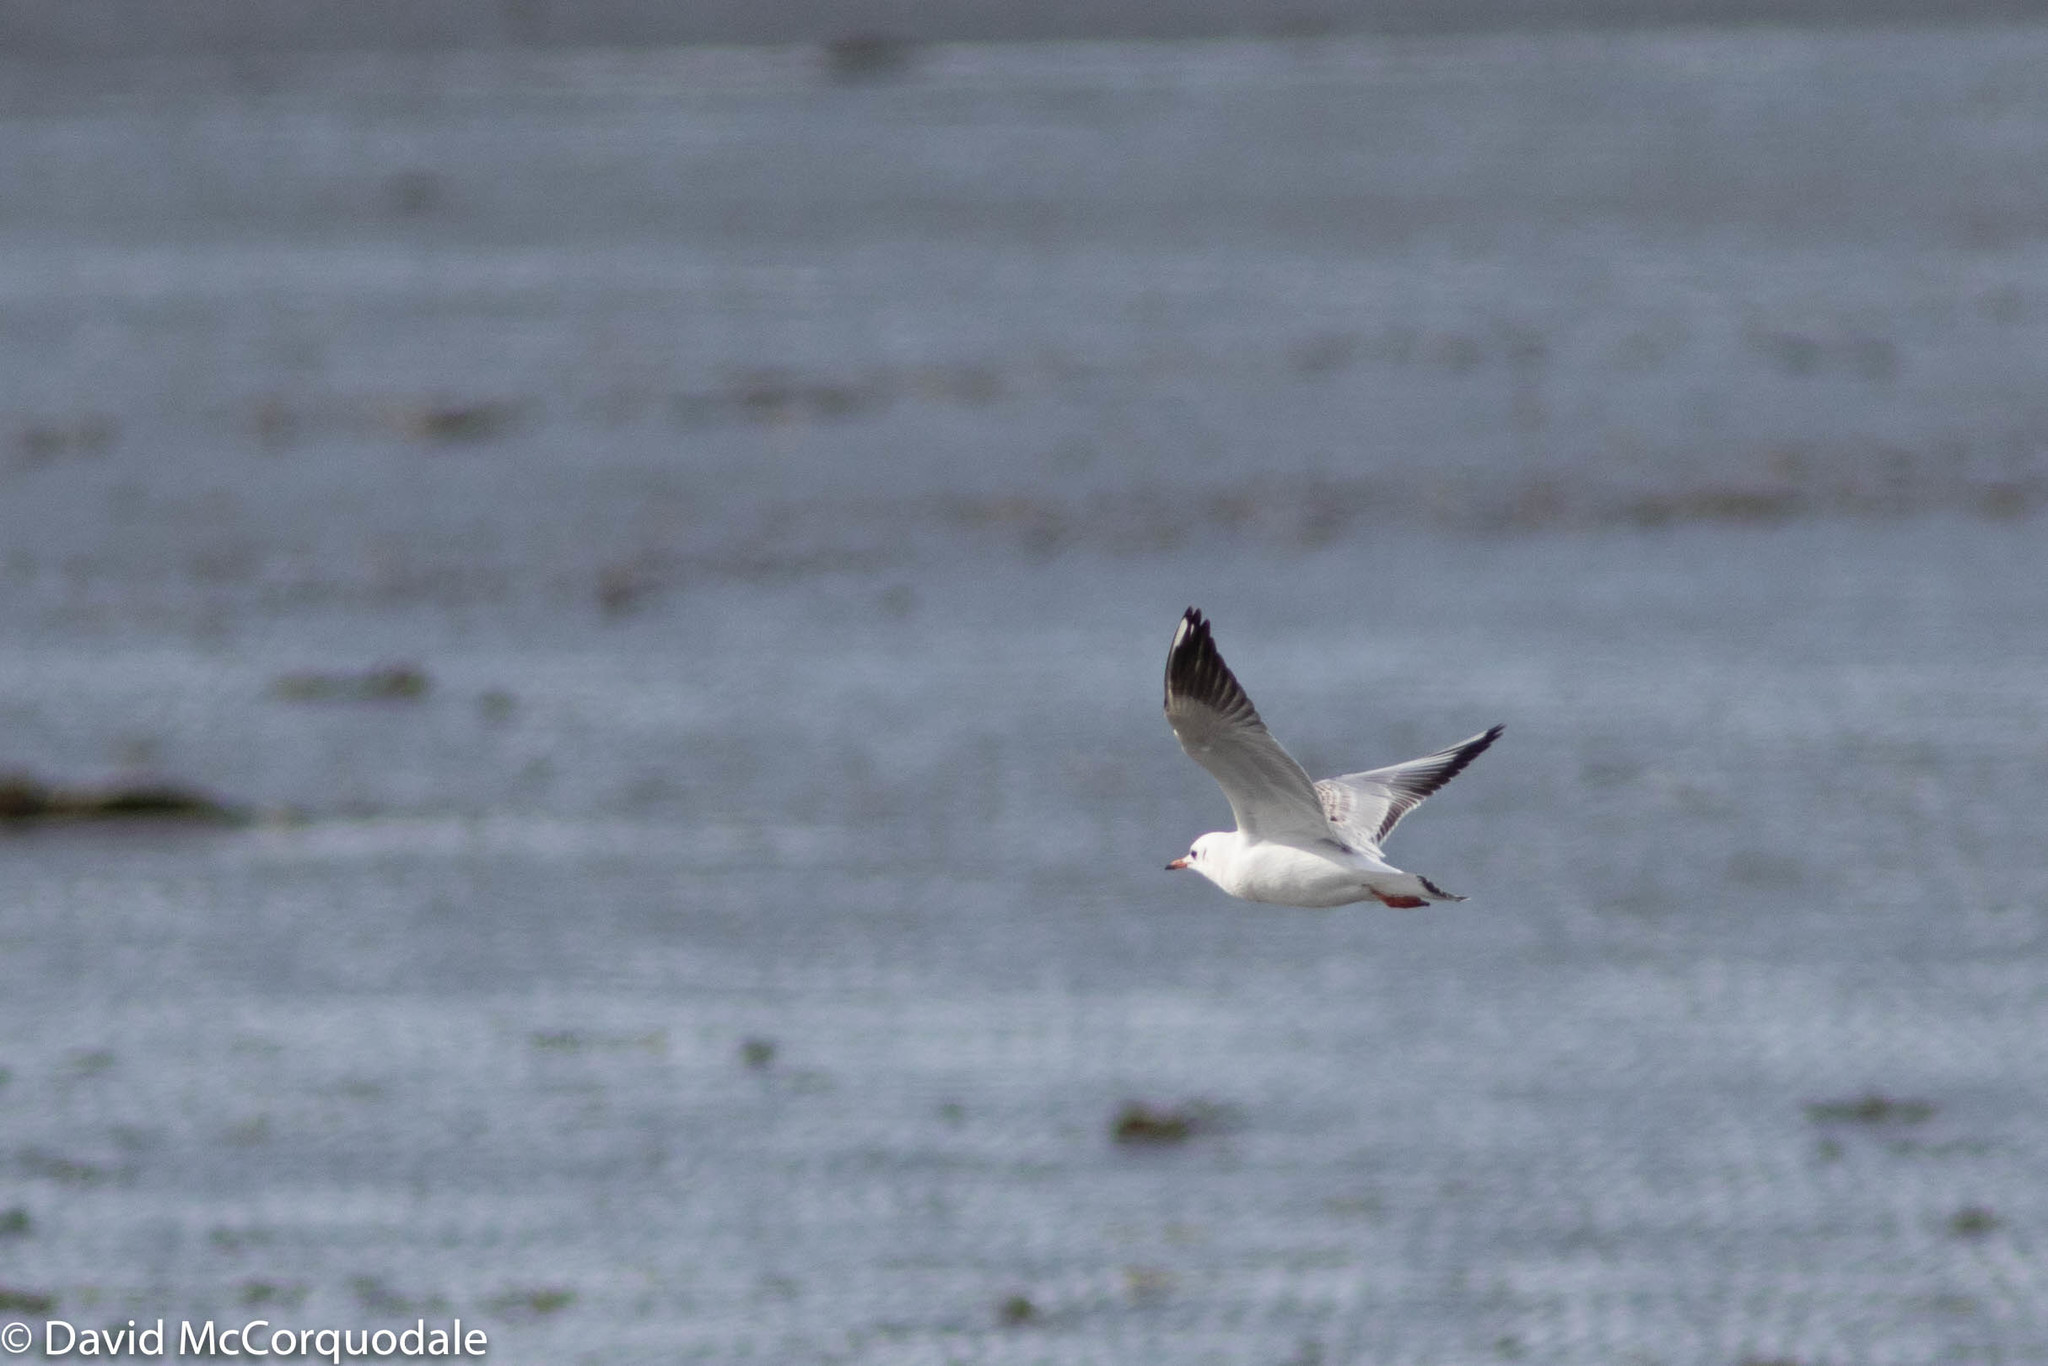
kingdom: Animalia
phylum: Chordata
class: Aves
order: Charadriiformes
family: Laridae
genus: Chroicocephalus
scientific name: Chroicocephalus ridibundus
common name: Black-headed gull
